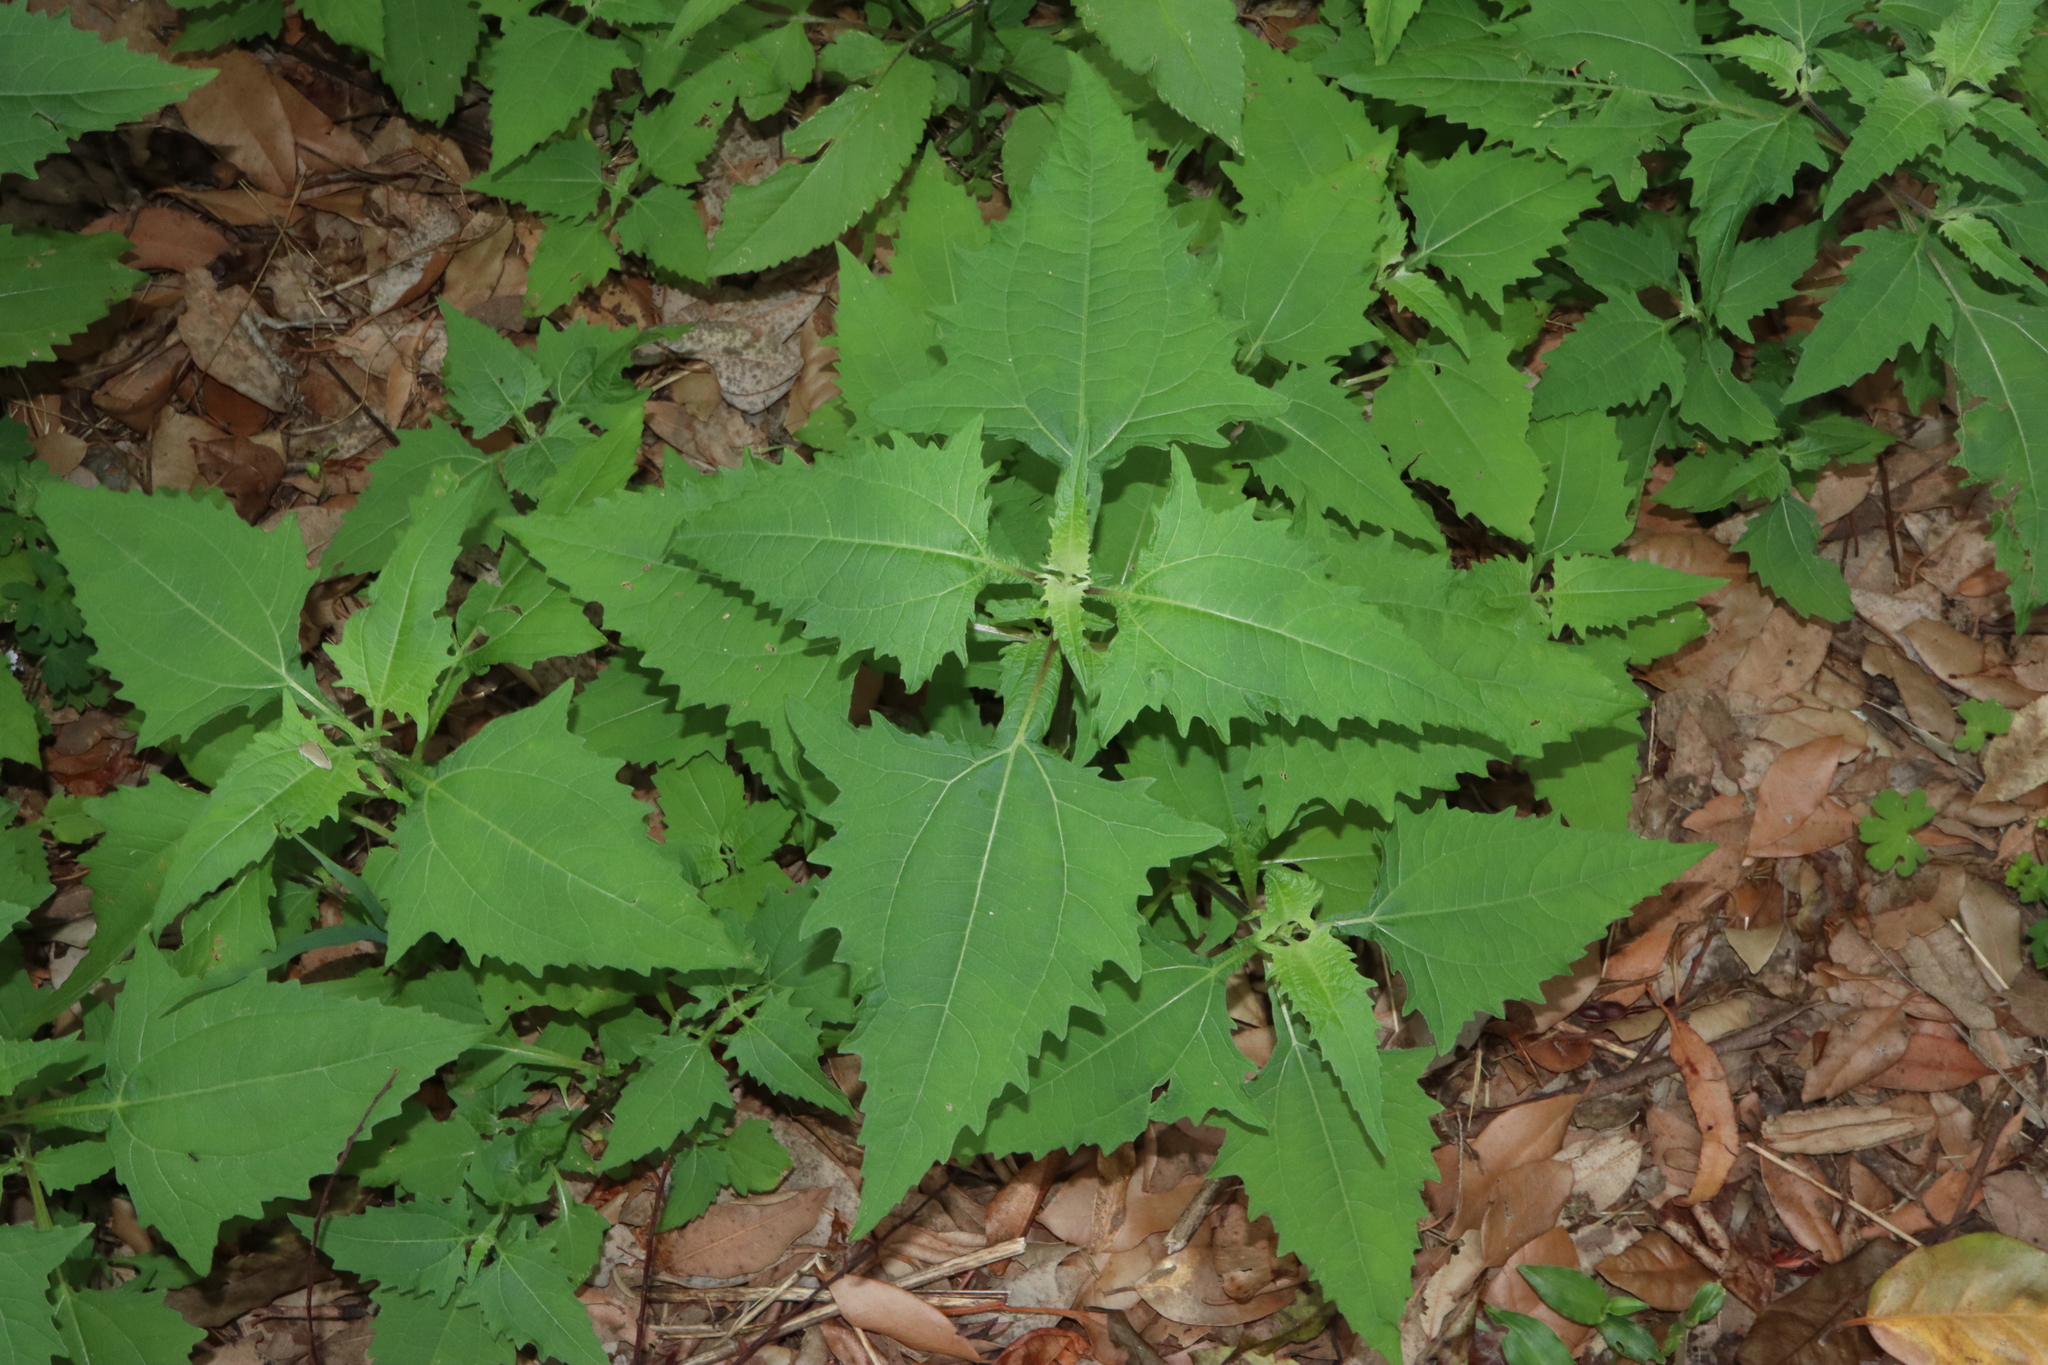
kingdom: Plantae
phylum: Tracheophyta
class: Magnoliopsida
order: Asterales
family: Asteraceae
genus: Sigesbeckia
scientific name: Sigesbeckia orientalis
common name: Eastern st paul's-wort
